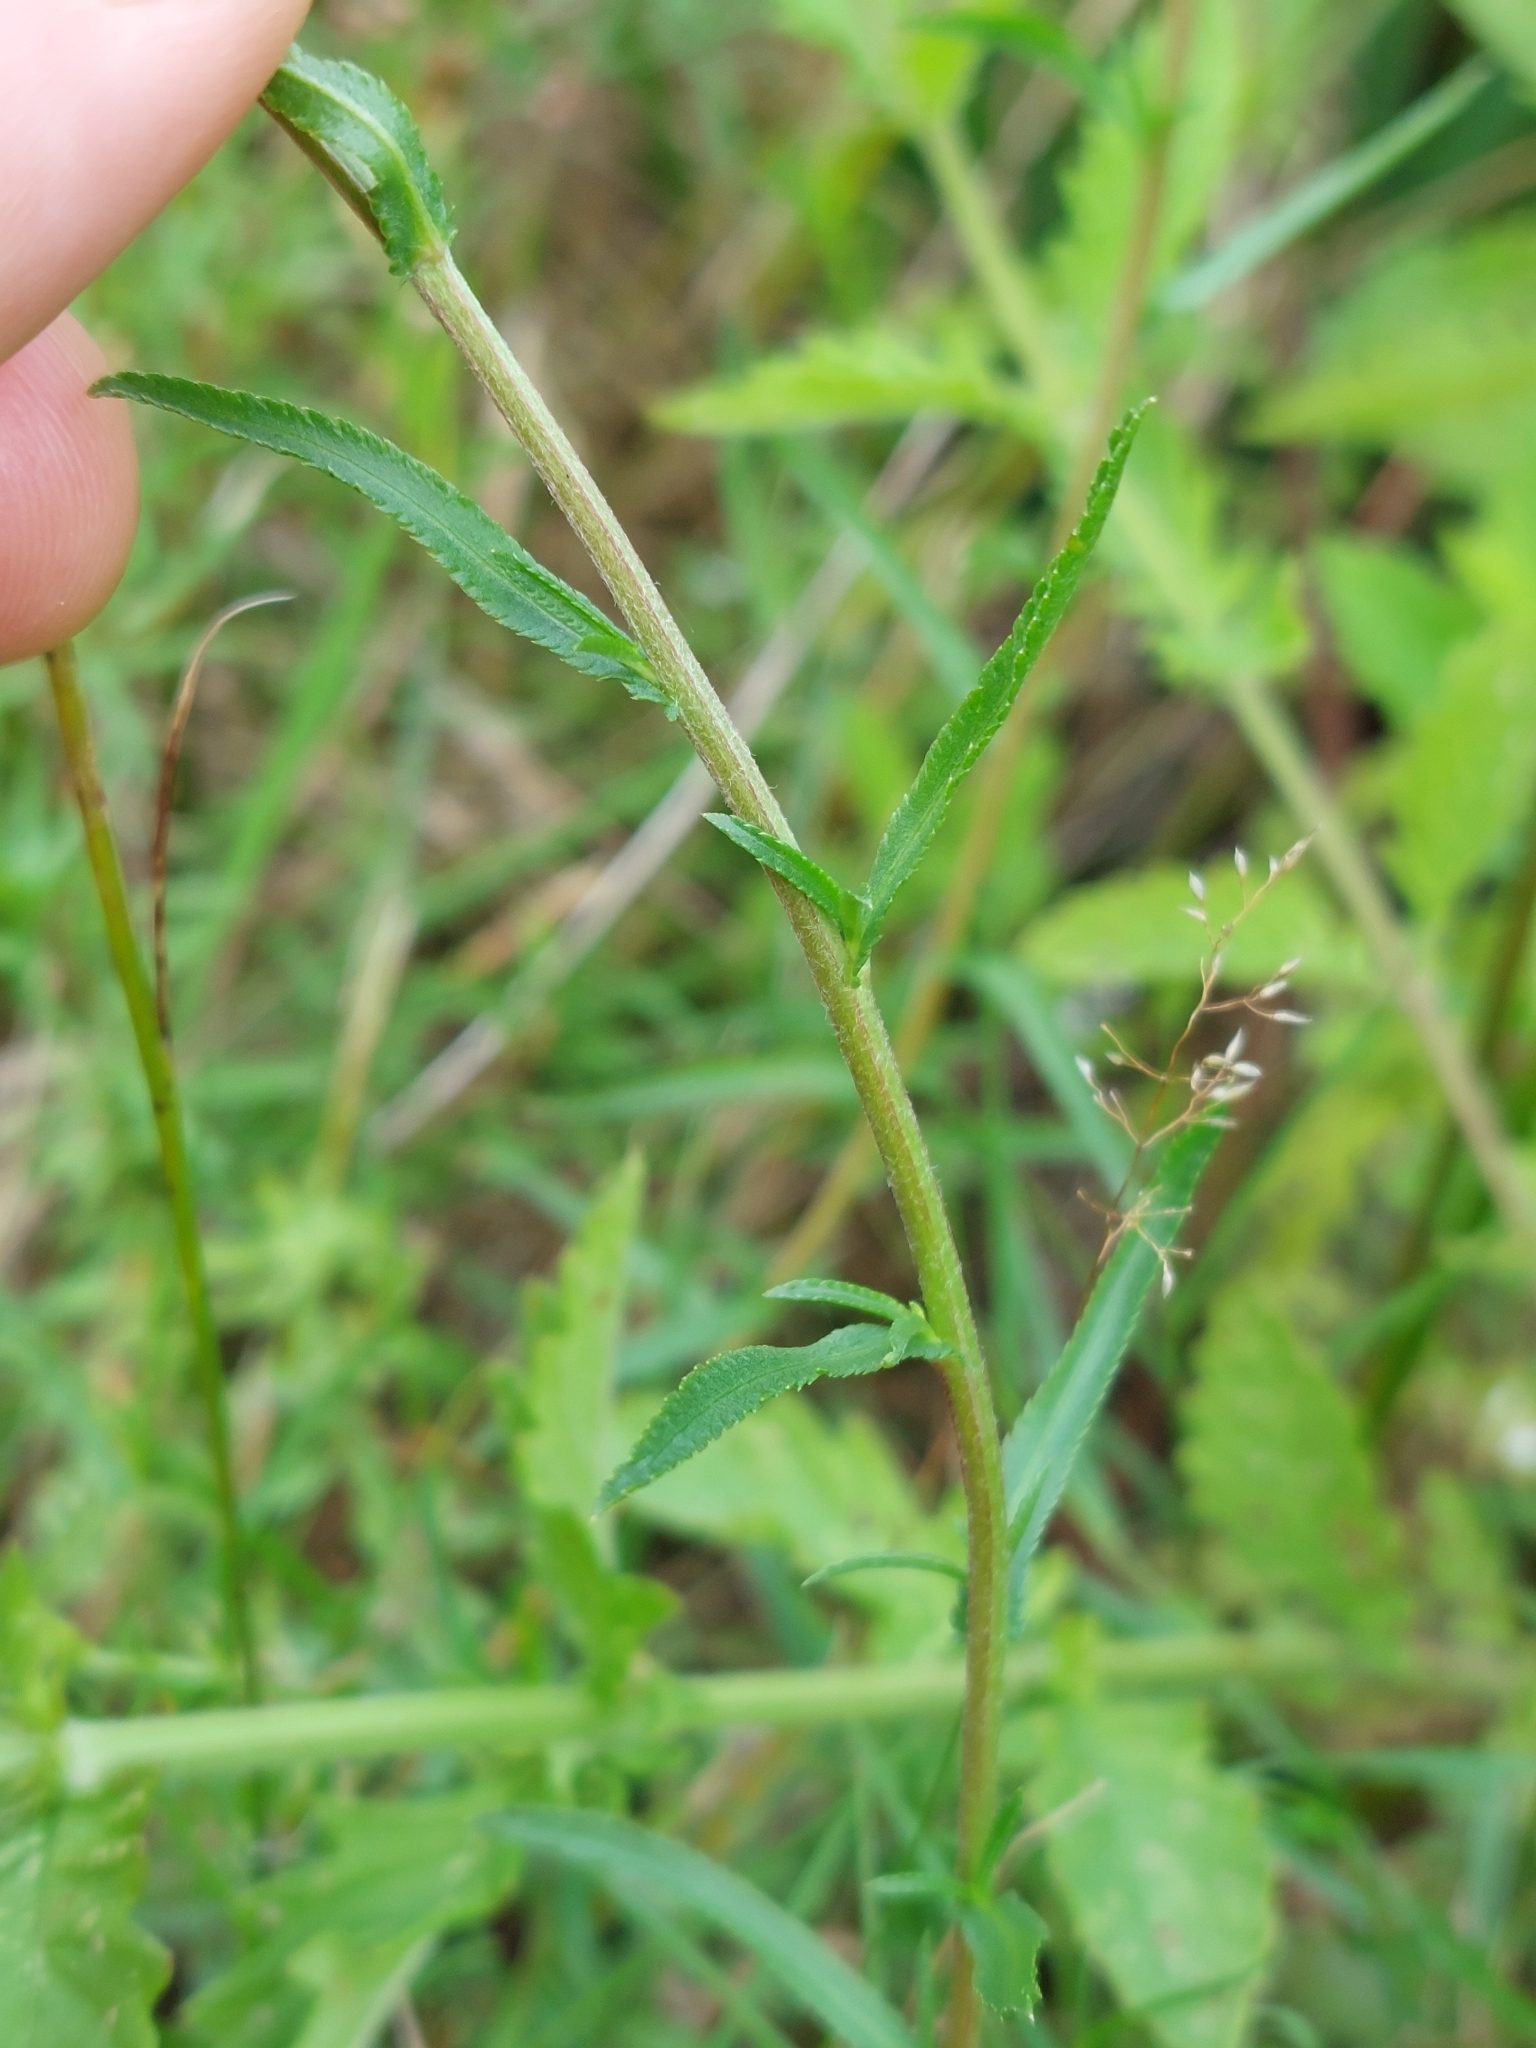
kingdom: Plantae
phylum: Tracheophyta
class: Magnoliopsida
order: Asterales
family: Asteraceae
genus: Achillea
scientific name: Achillea ptarmica
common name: Sneezeweed
